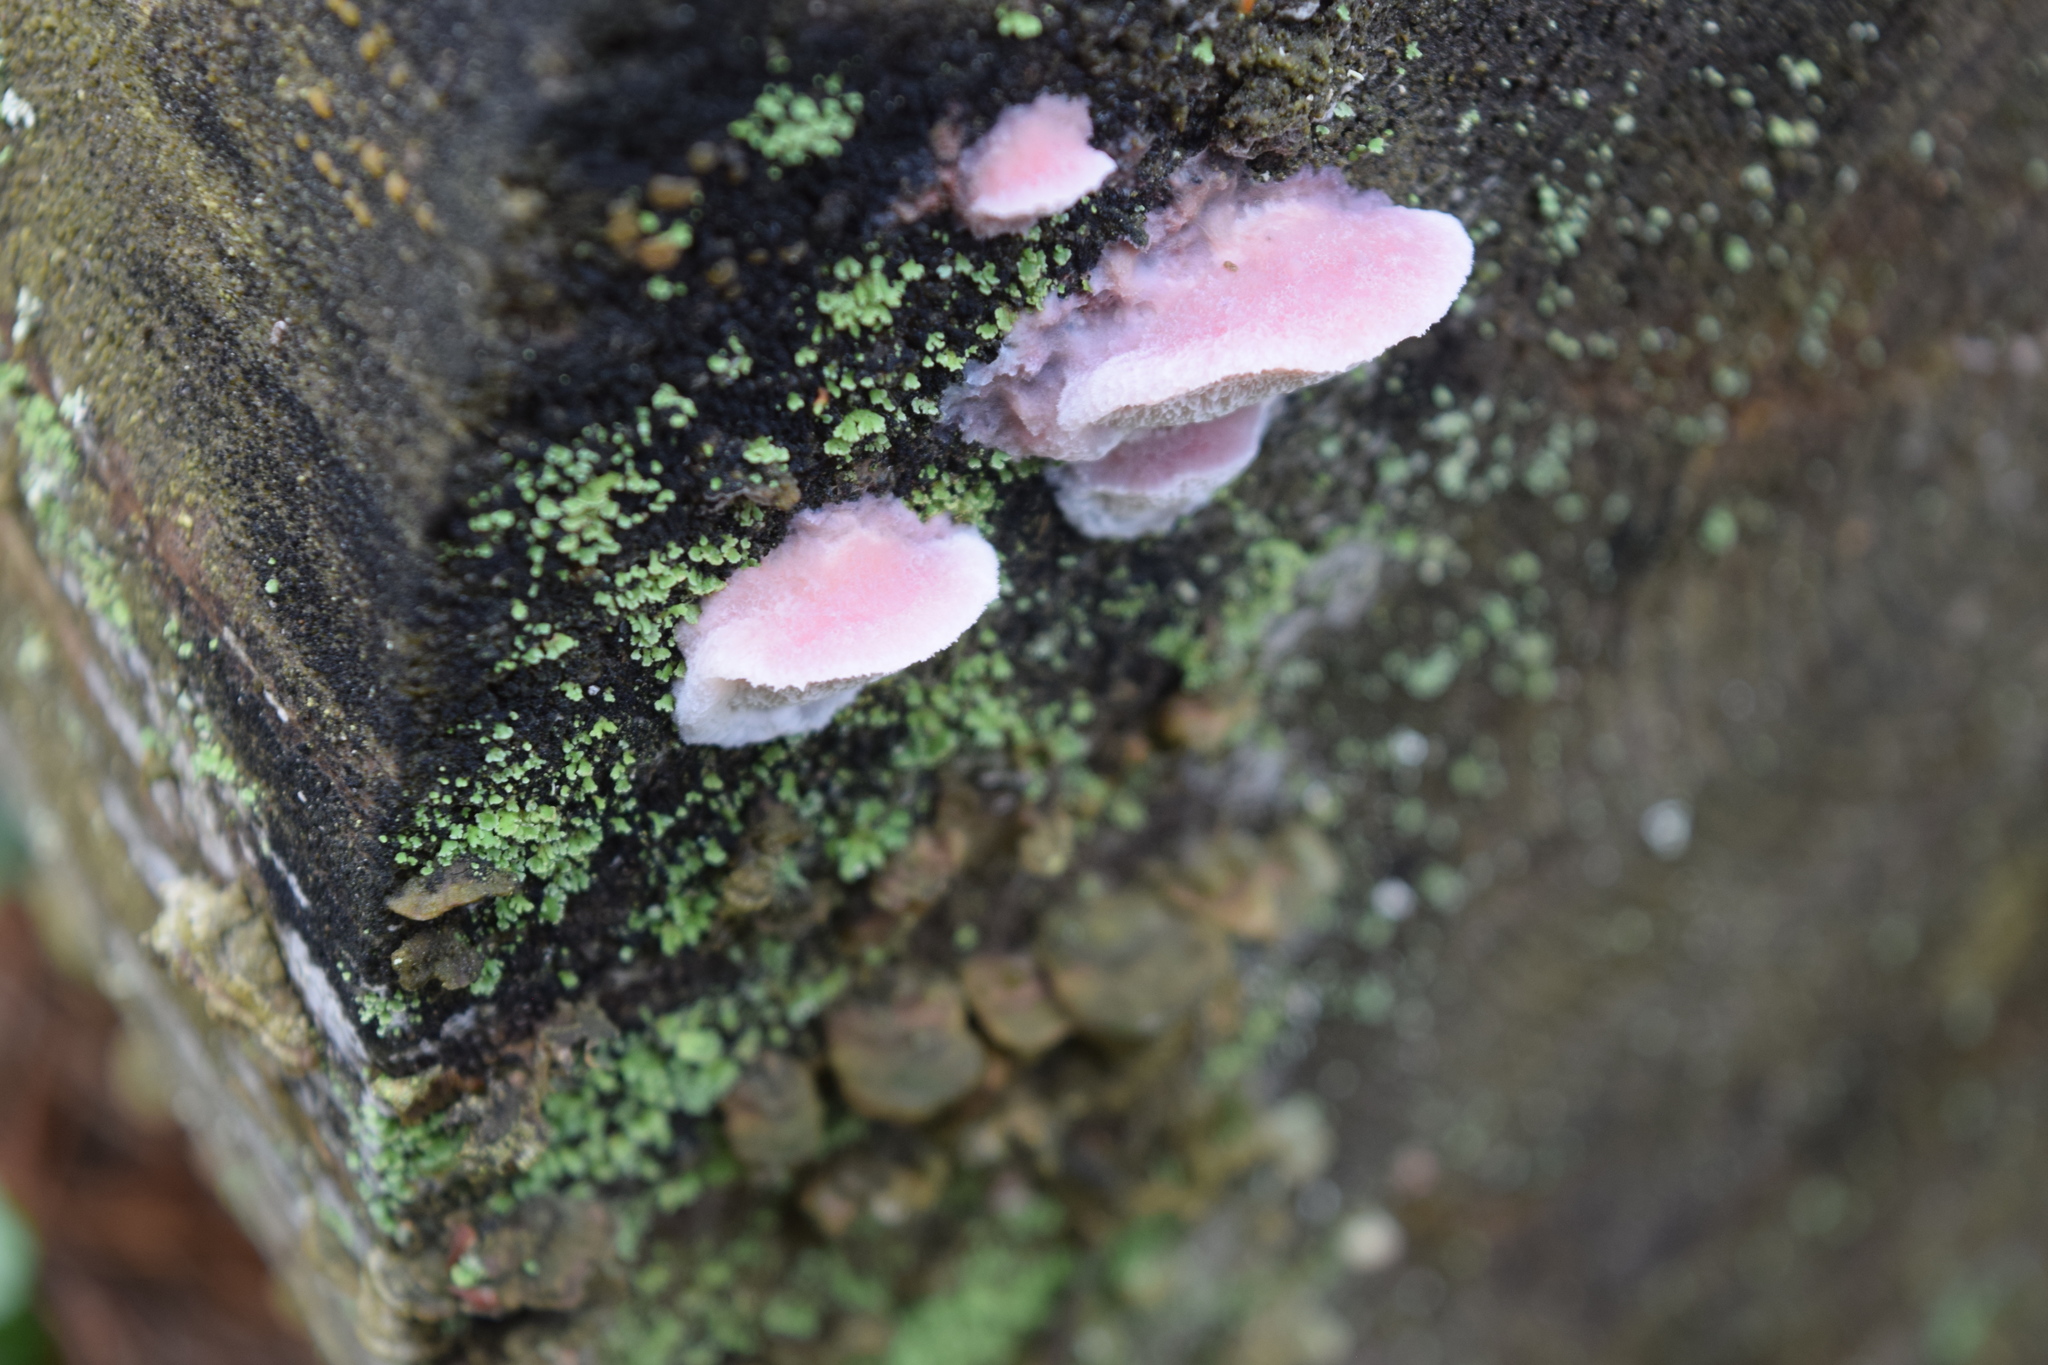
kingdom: Fungi
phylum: Basidiomycota
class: Agaricomycetes
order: Polyporales
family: Irpicaceae
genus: Leptoporus
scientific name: Leptoporus mollis
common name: Soft bracket
